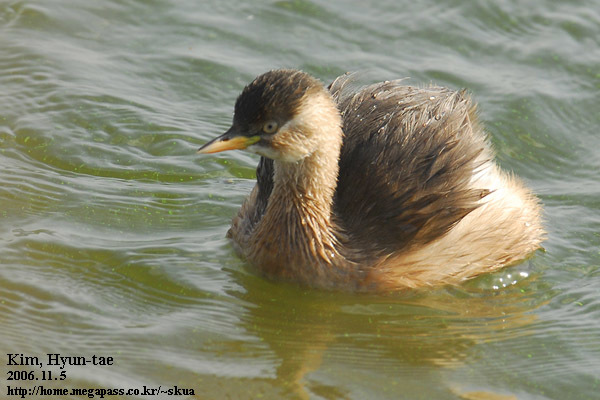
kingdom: Animalia
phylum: Chordata
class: Aves
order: Podicipediformes
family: Podicipedidae
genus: Tachybaptus
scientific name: Tachybaptus ruficollis
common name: Little grebe
